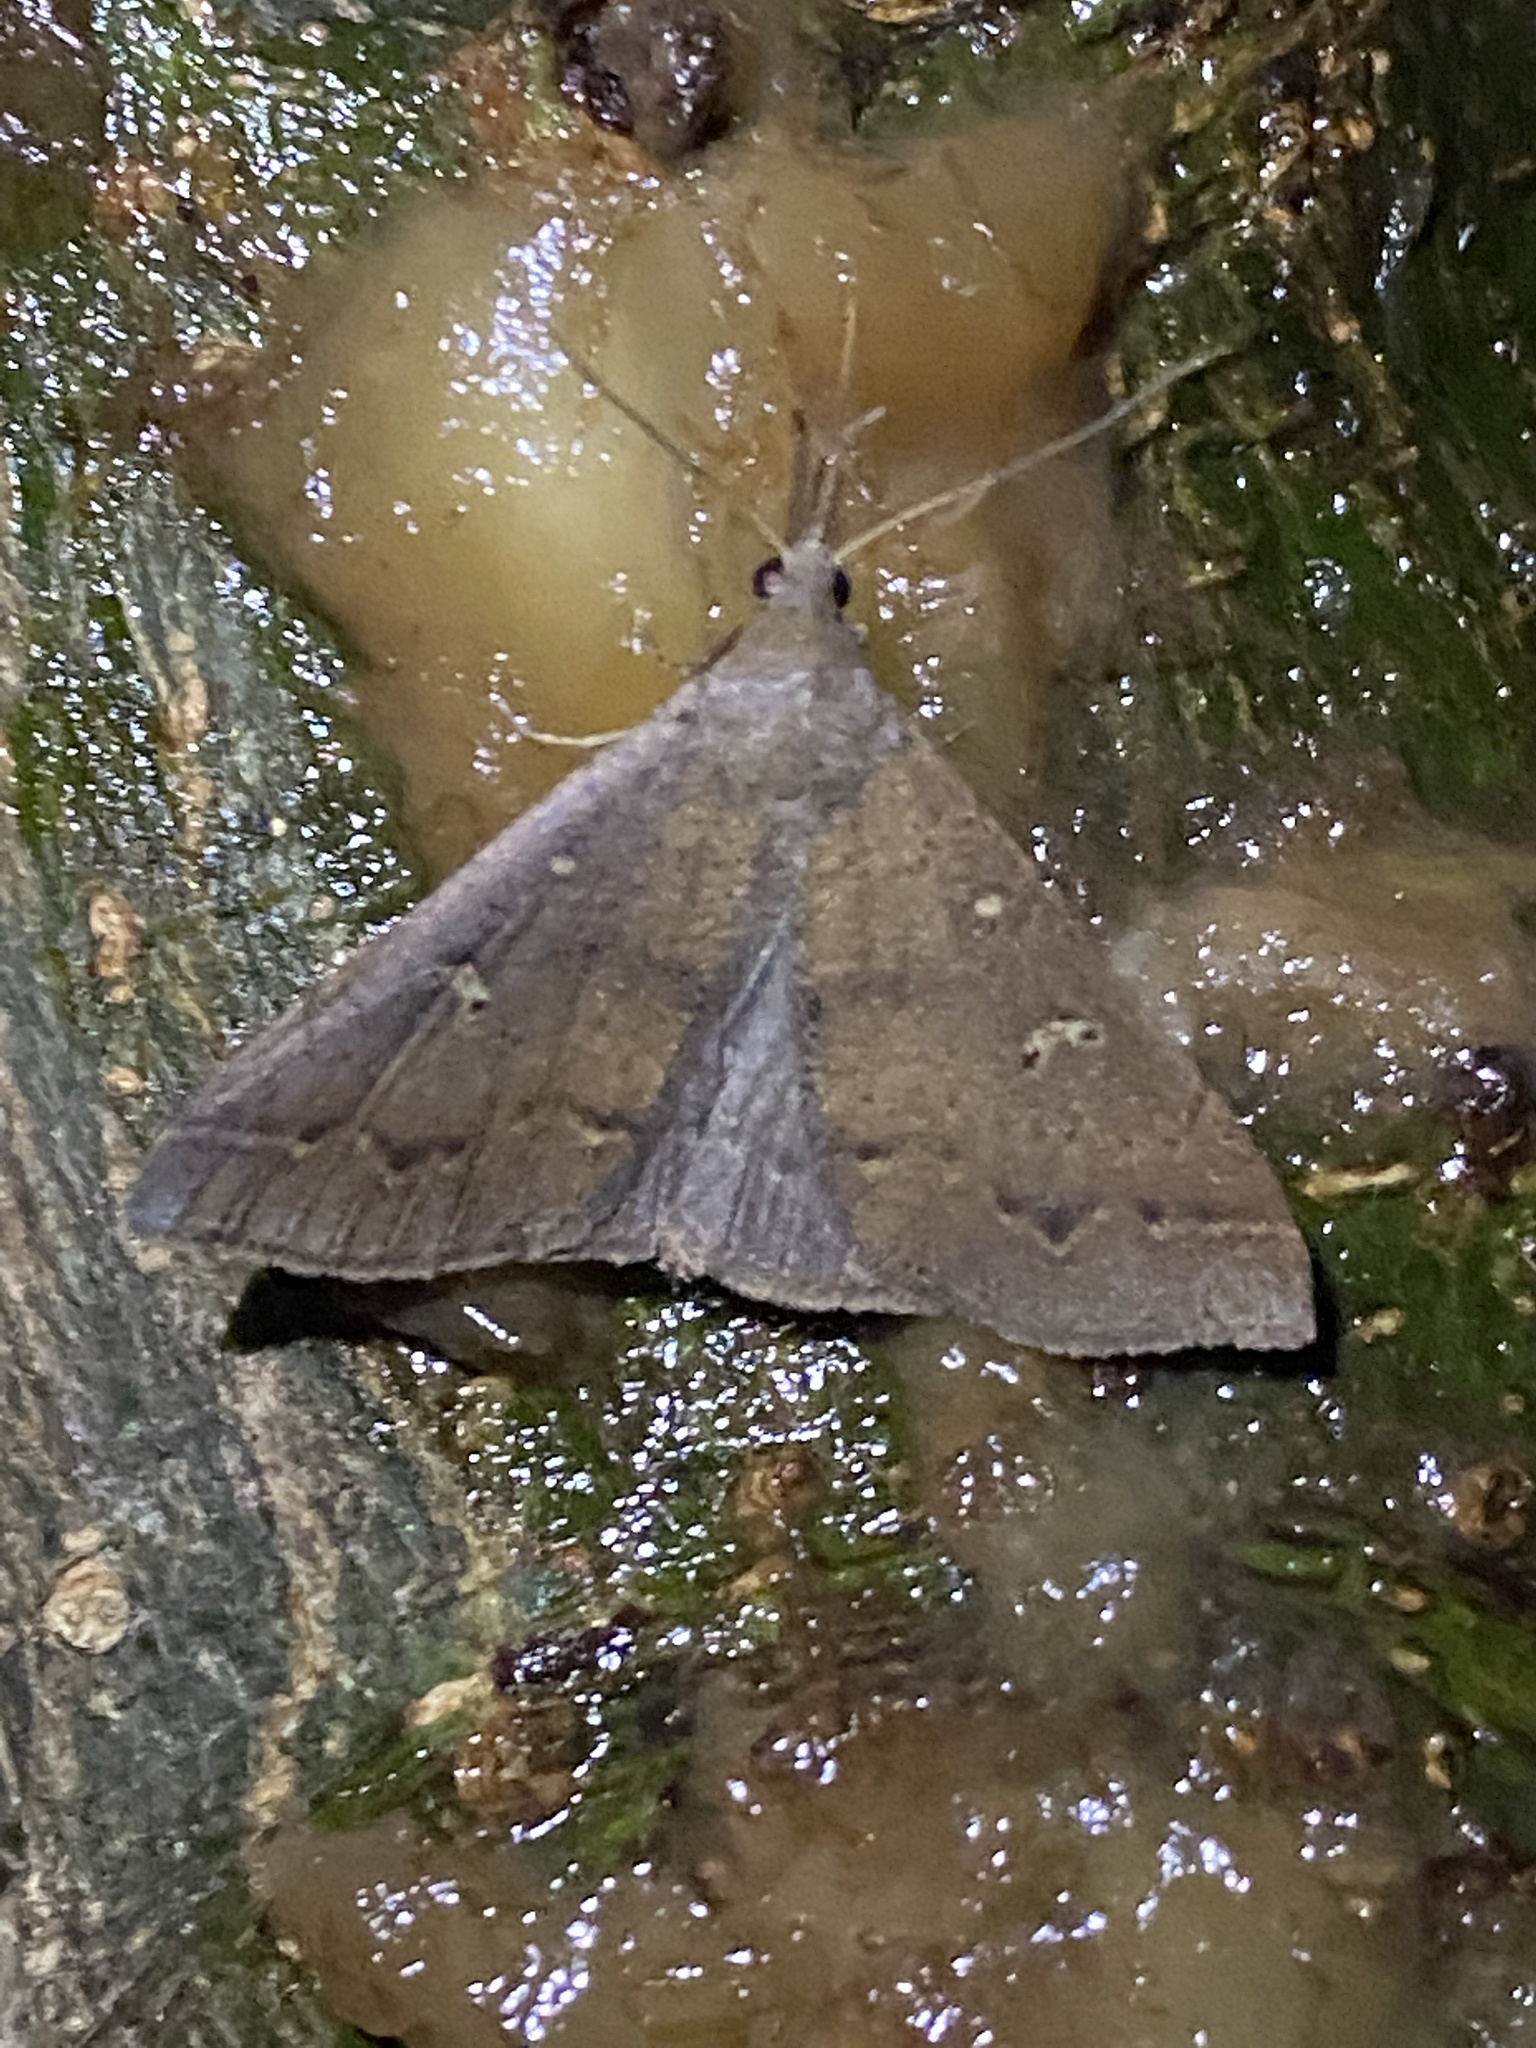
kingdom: Animalia
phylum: Arthropoda
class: Insecta
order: Lepidoptera
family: Erebidae
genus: Renia
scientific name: Renia adspergillus
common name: Speckled renia moth
